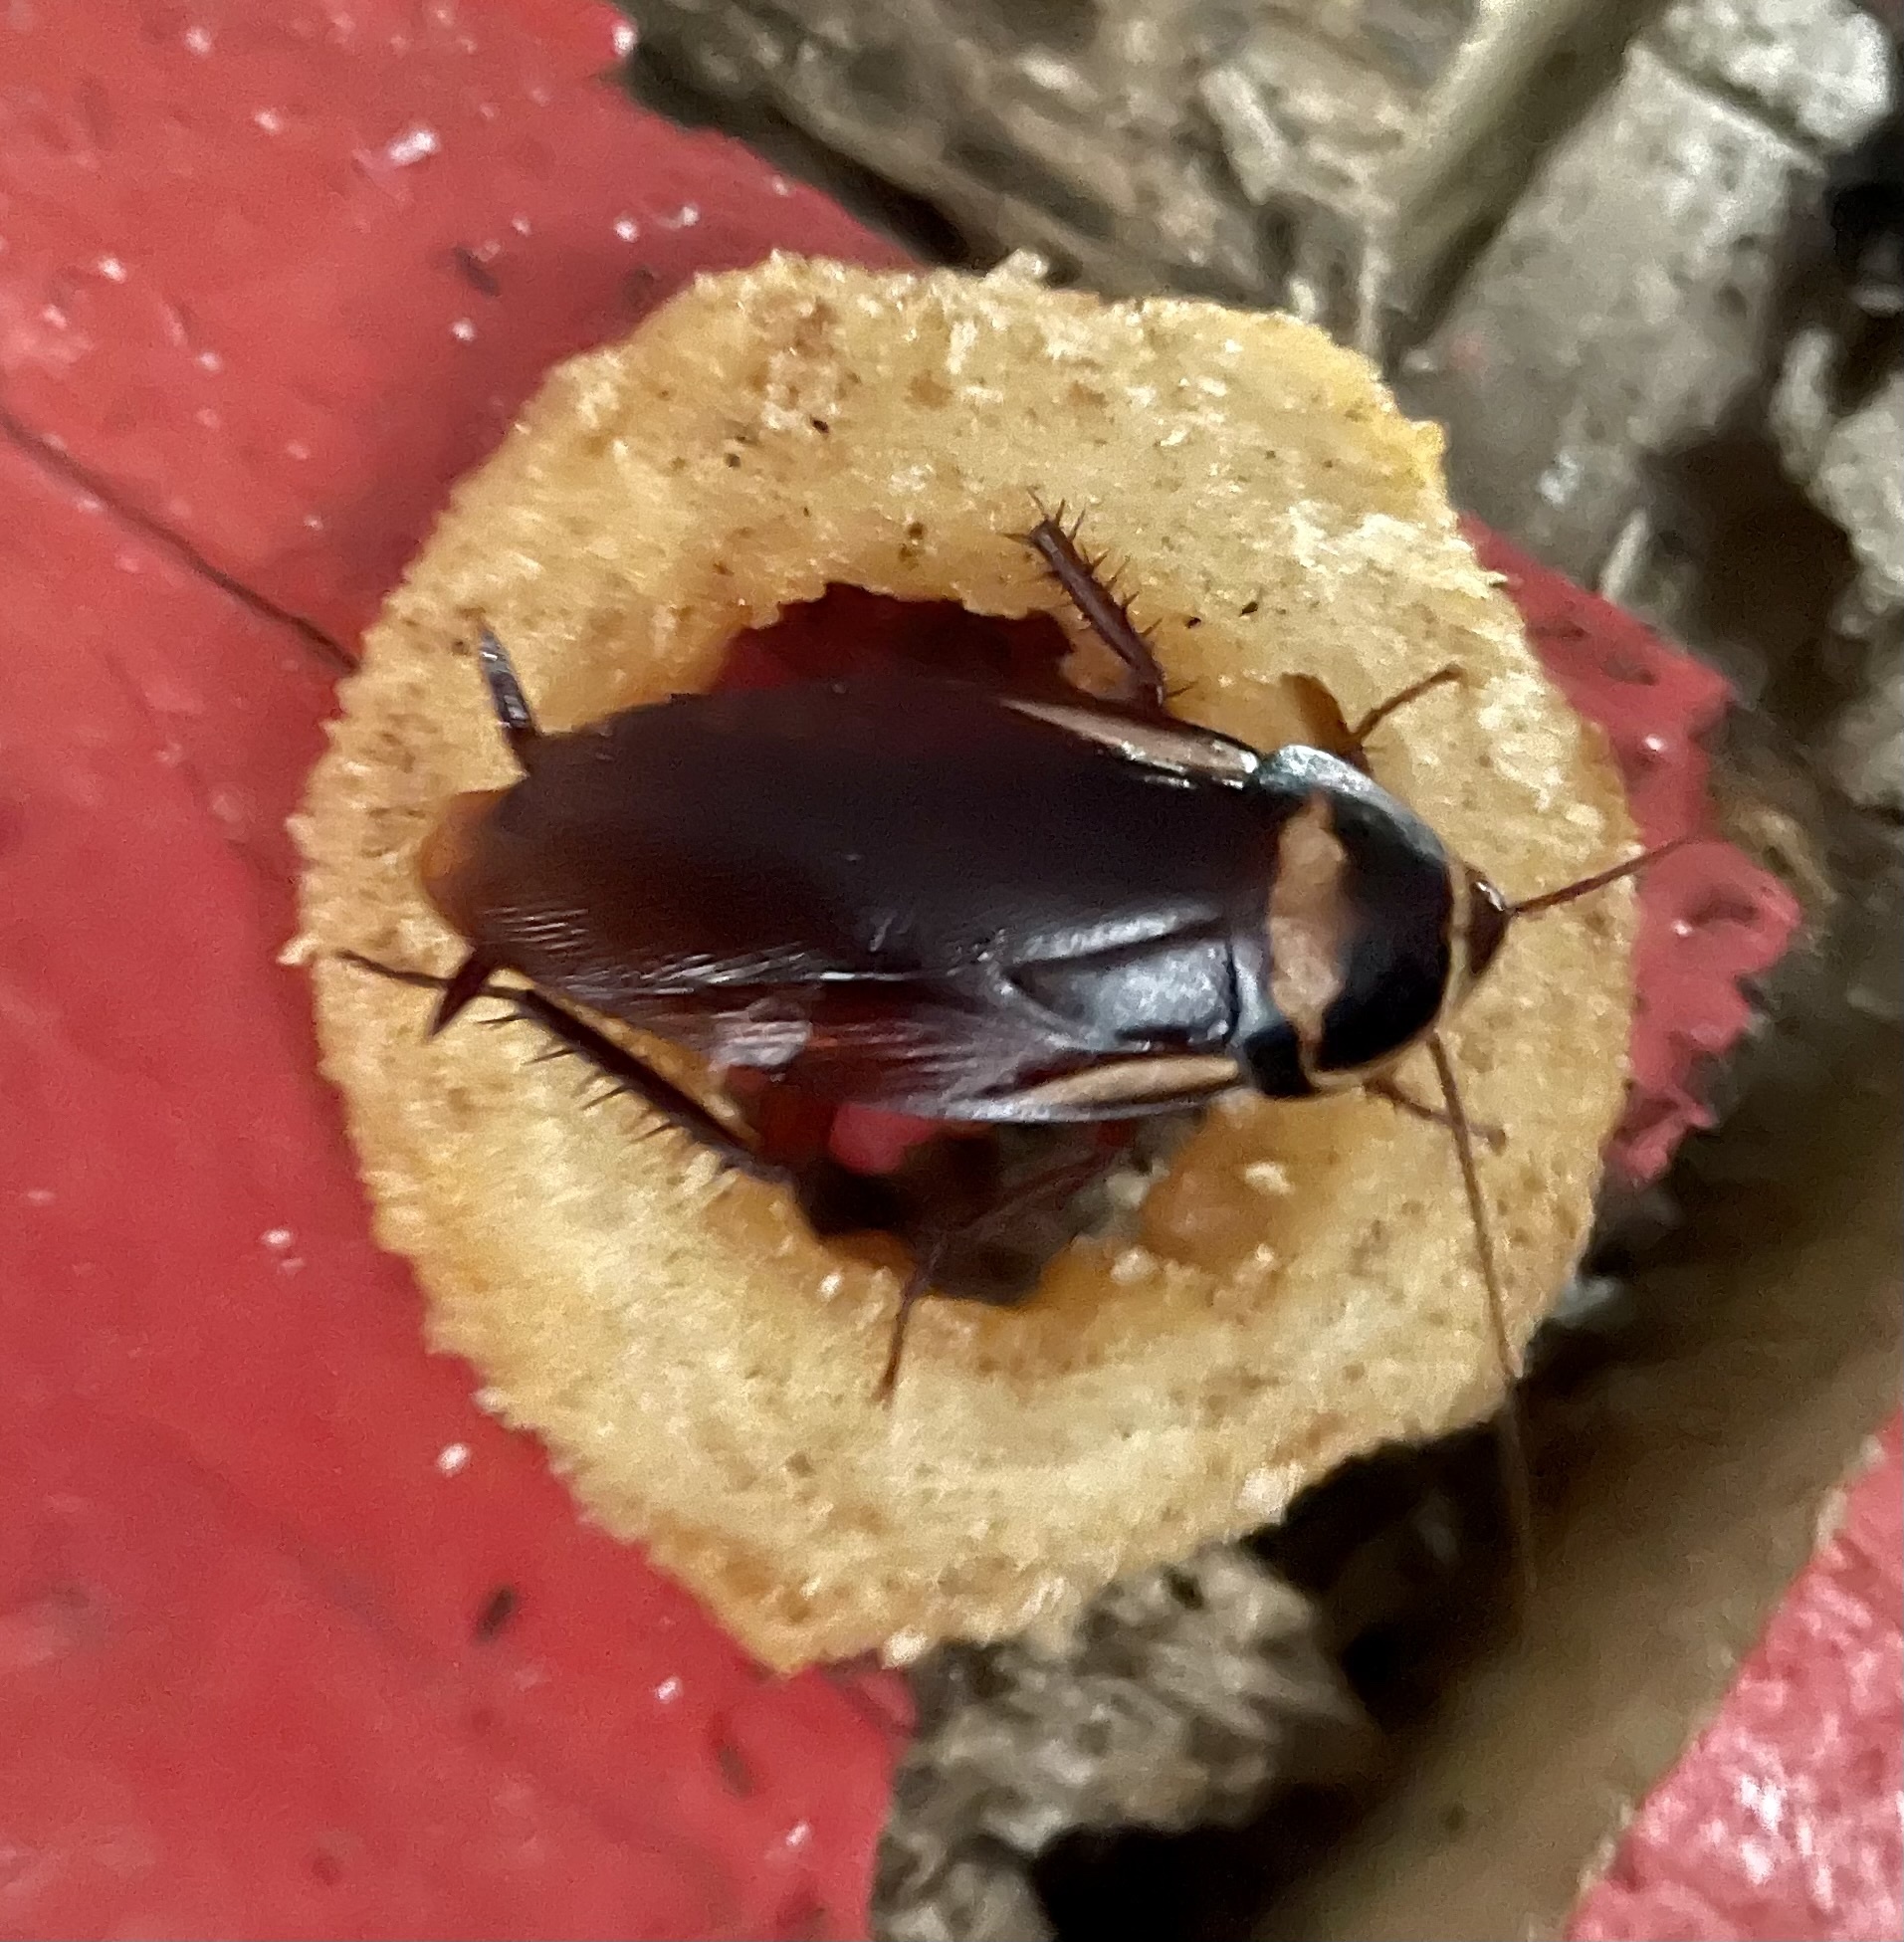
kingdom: Animalia
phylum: Arthropoda
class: Insecta
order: Blattodea
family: Blattidae
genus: Periplaneta
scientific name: Periplaneta americana
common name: American cockroach
